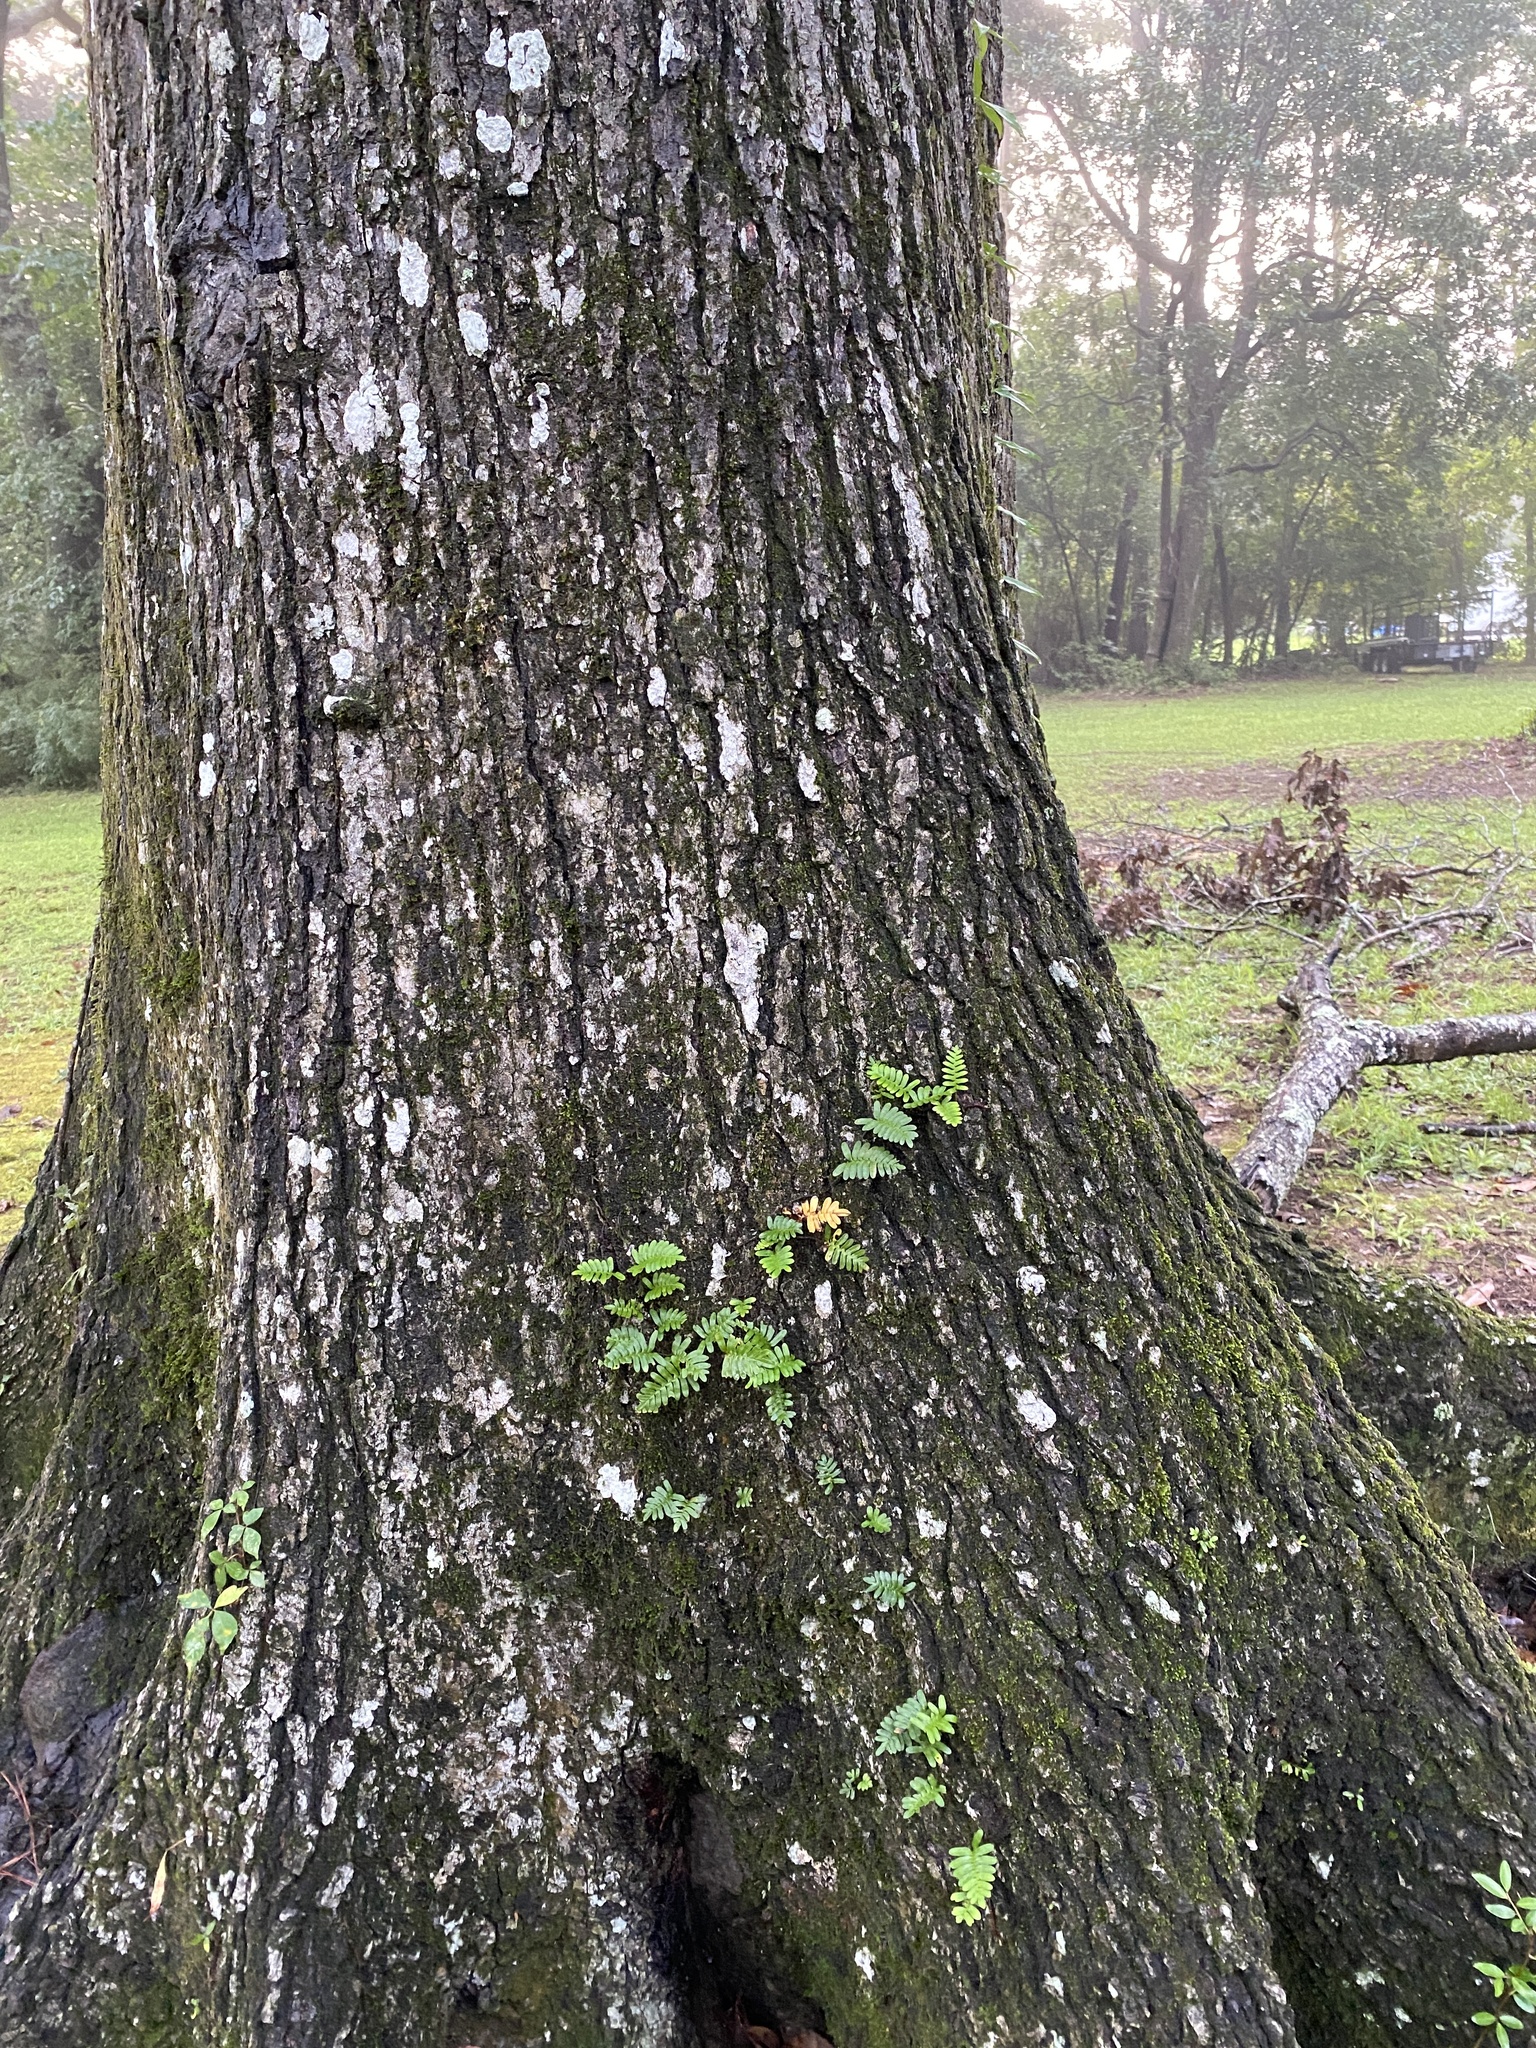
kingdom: Plantae
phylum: Tracheophyta
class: Polypodiopsida
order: Polypodiales
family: Polypodiaceae
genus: Pleopeltis
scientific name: Pleopeltis michauxiana
